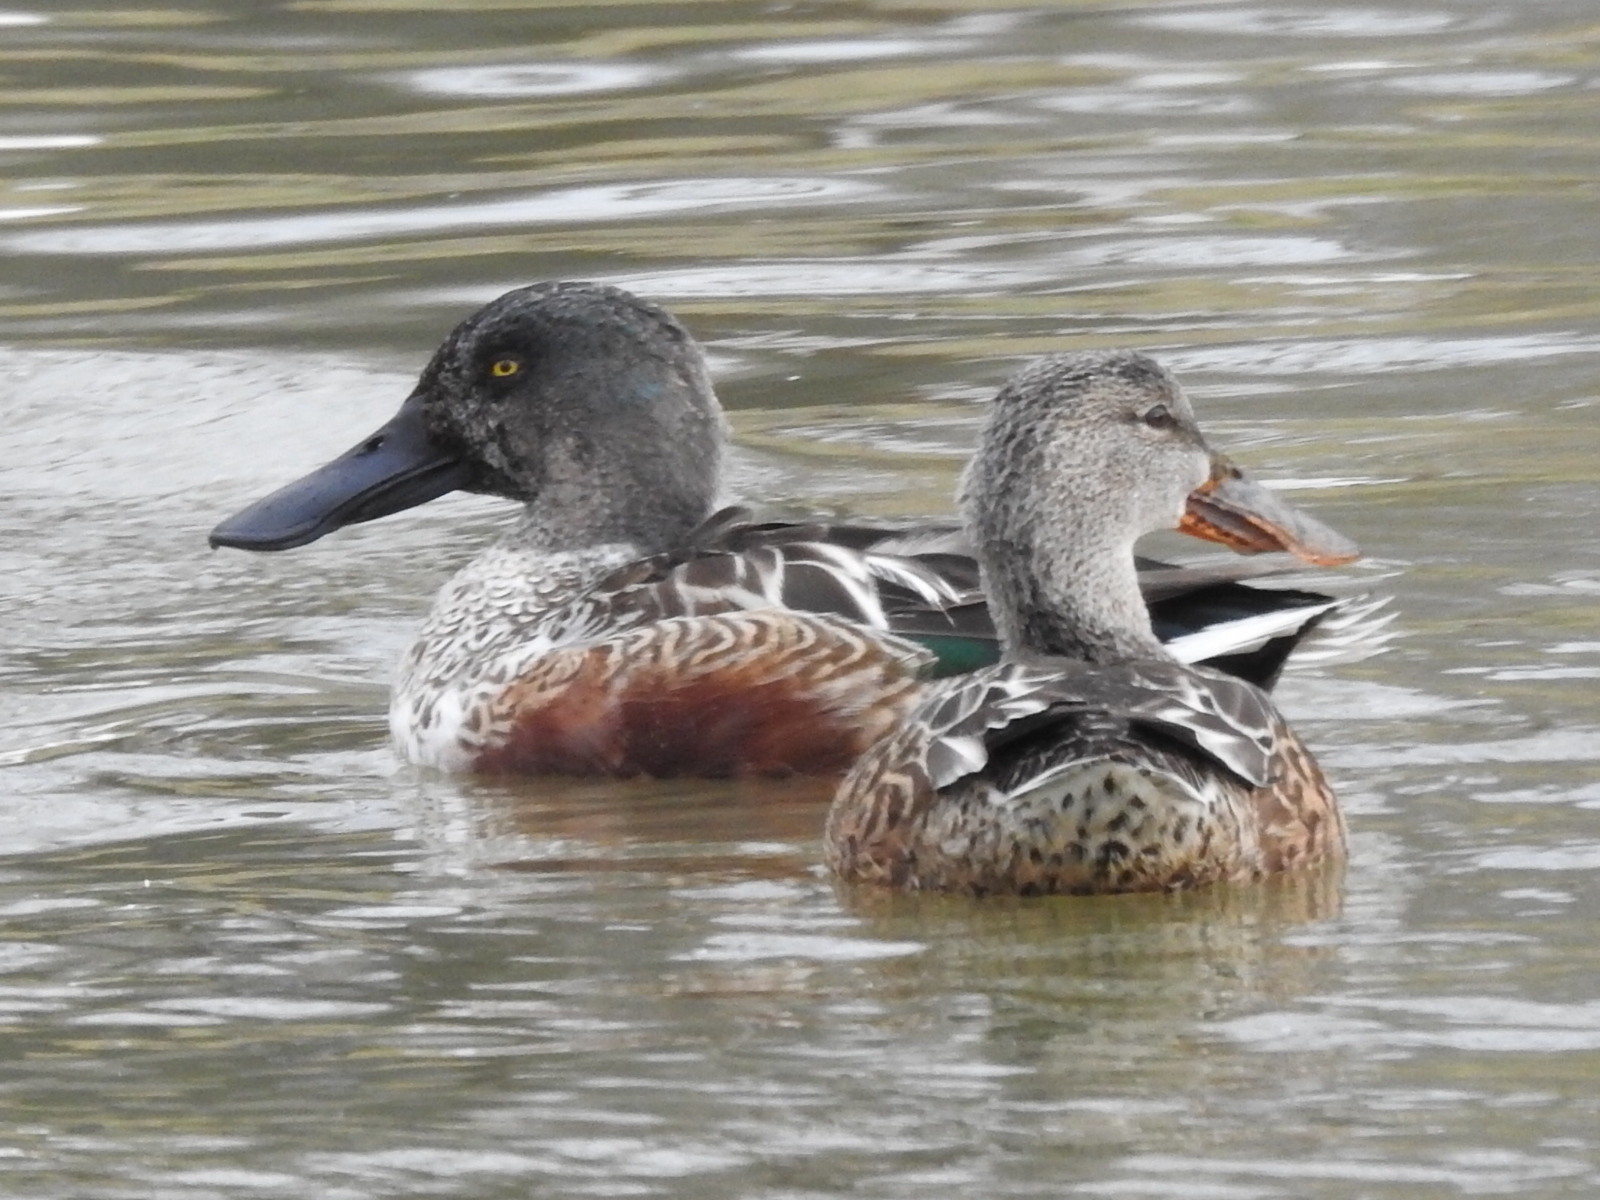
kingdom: Animalia
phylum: Chordata
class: Aves
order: Anseriformes
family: Anatidae
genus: Spatula
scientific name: Spatula clypeata
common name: Northern shoveler
